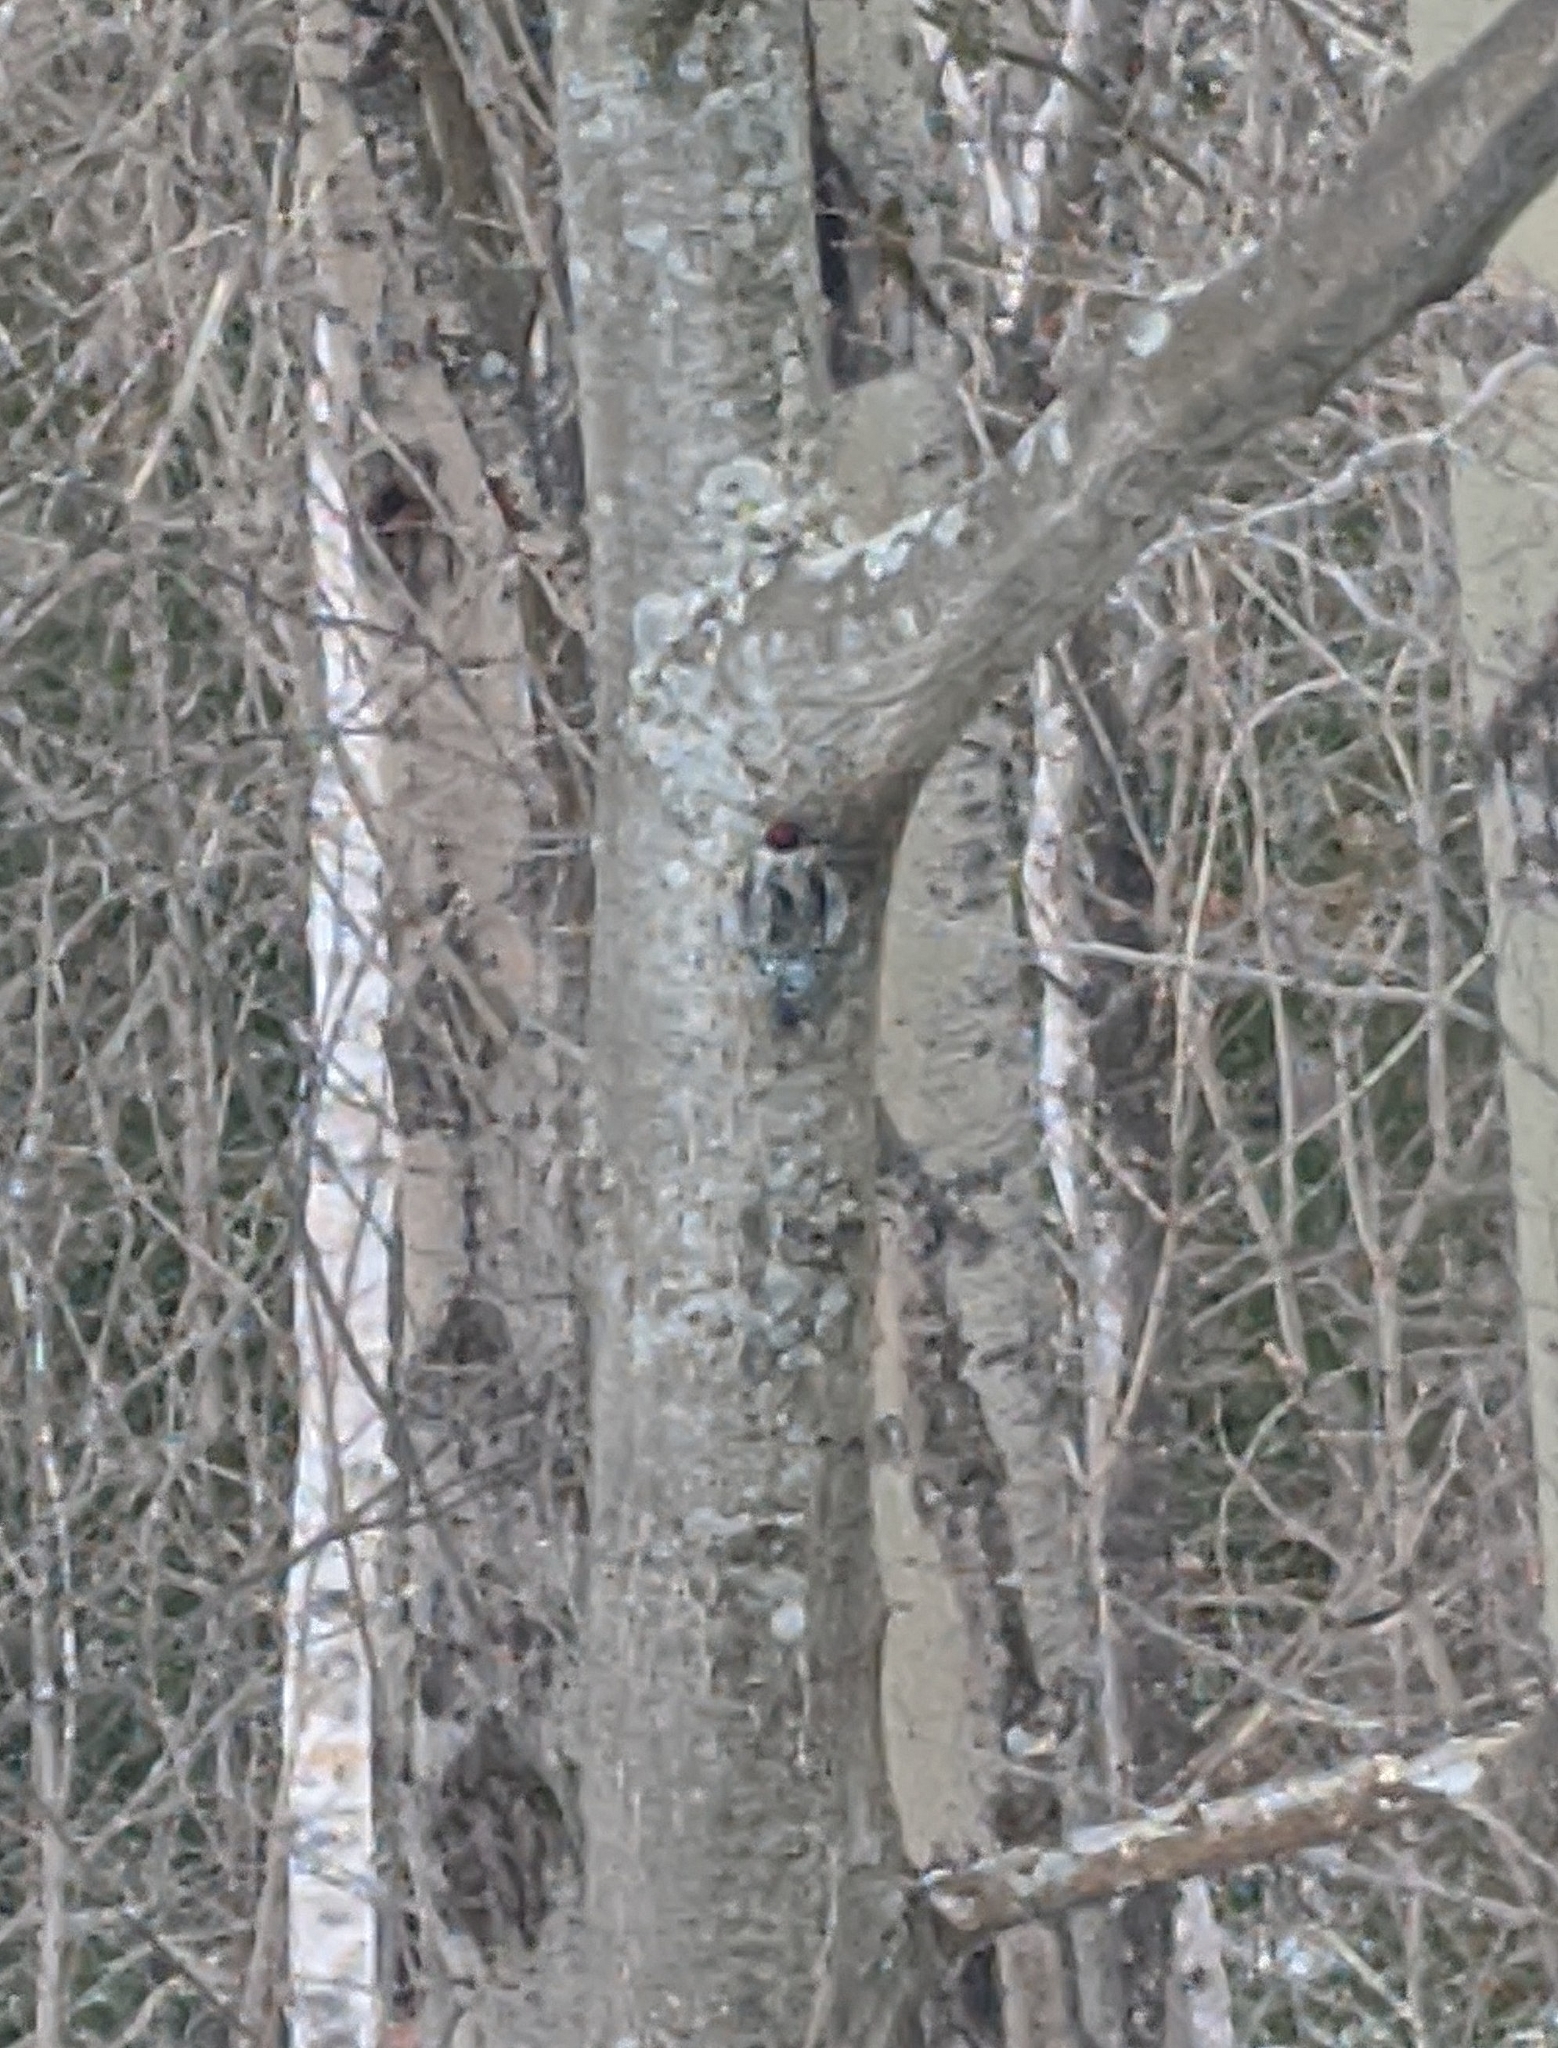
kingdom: Animalia
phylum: Chordata
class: Aves
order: Piciformes
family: Picidae
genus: Sphyrapicus
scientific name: Sphyrapicus varius
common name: Yellow-bellied sapsucker
